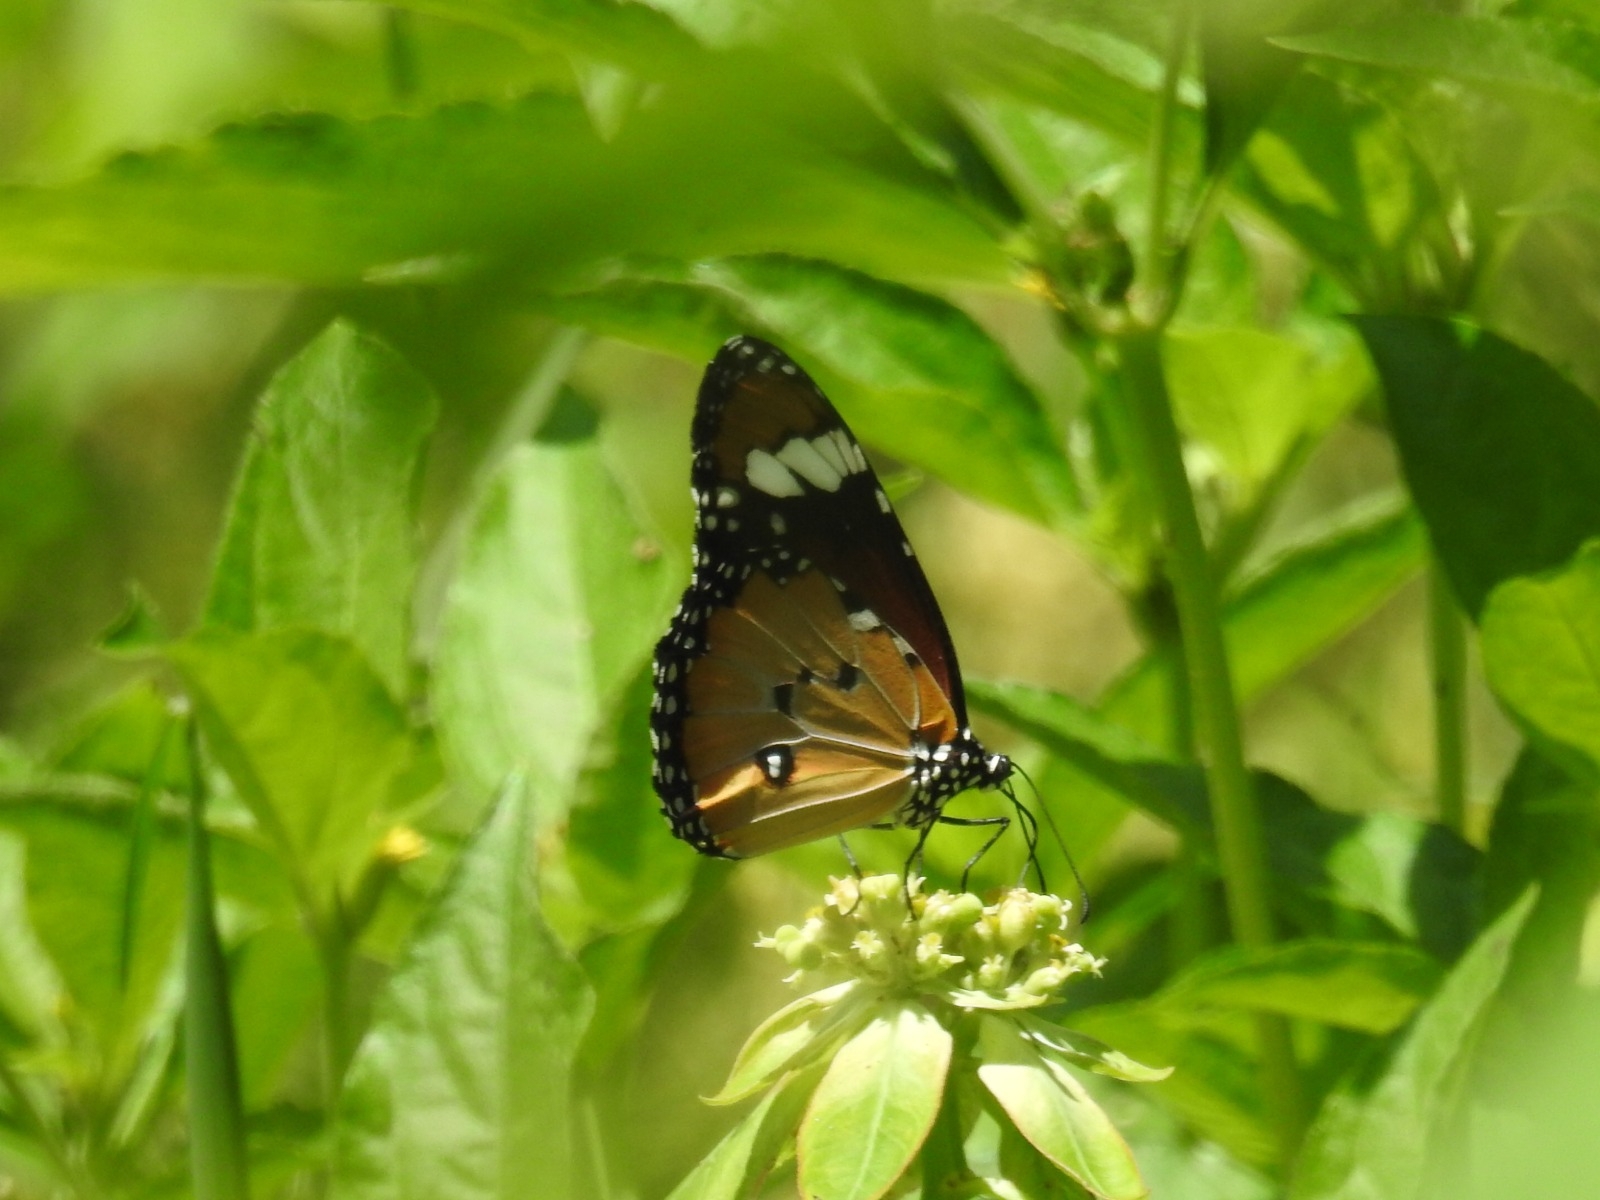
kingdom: Animalia
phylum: Arthropoda
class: Insecta
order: Lepidoptera
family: Nymphalidae
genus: Danaus
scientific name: Danaus chrysippus
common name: Plain tiger
